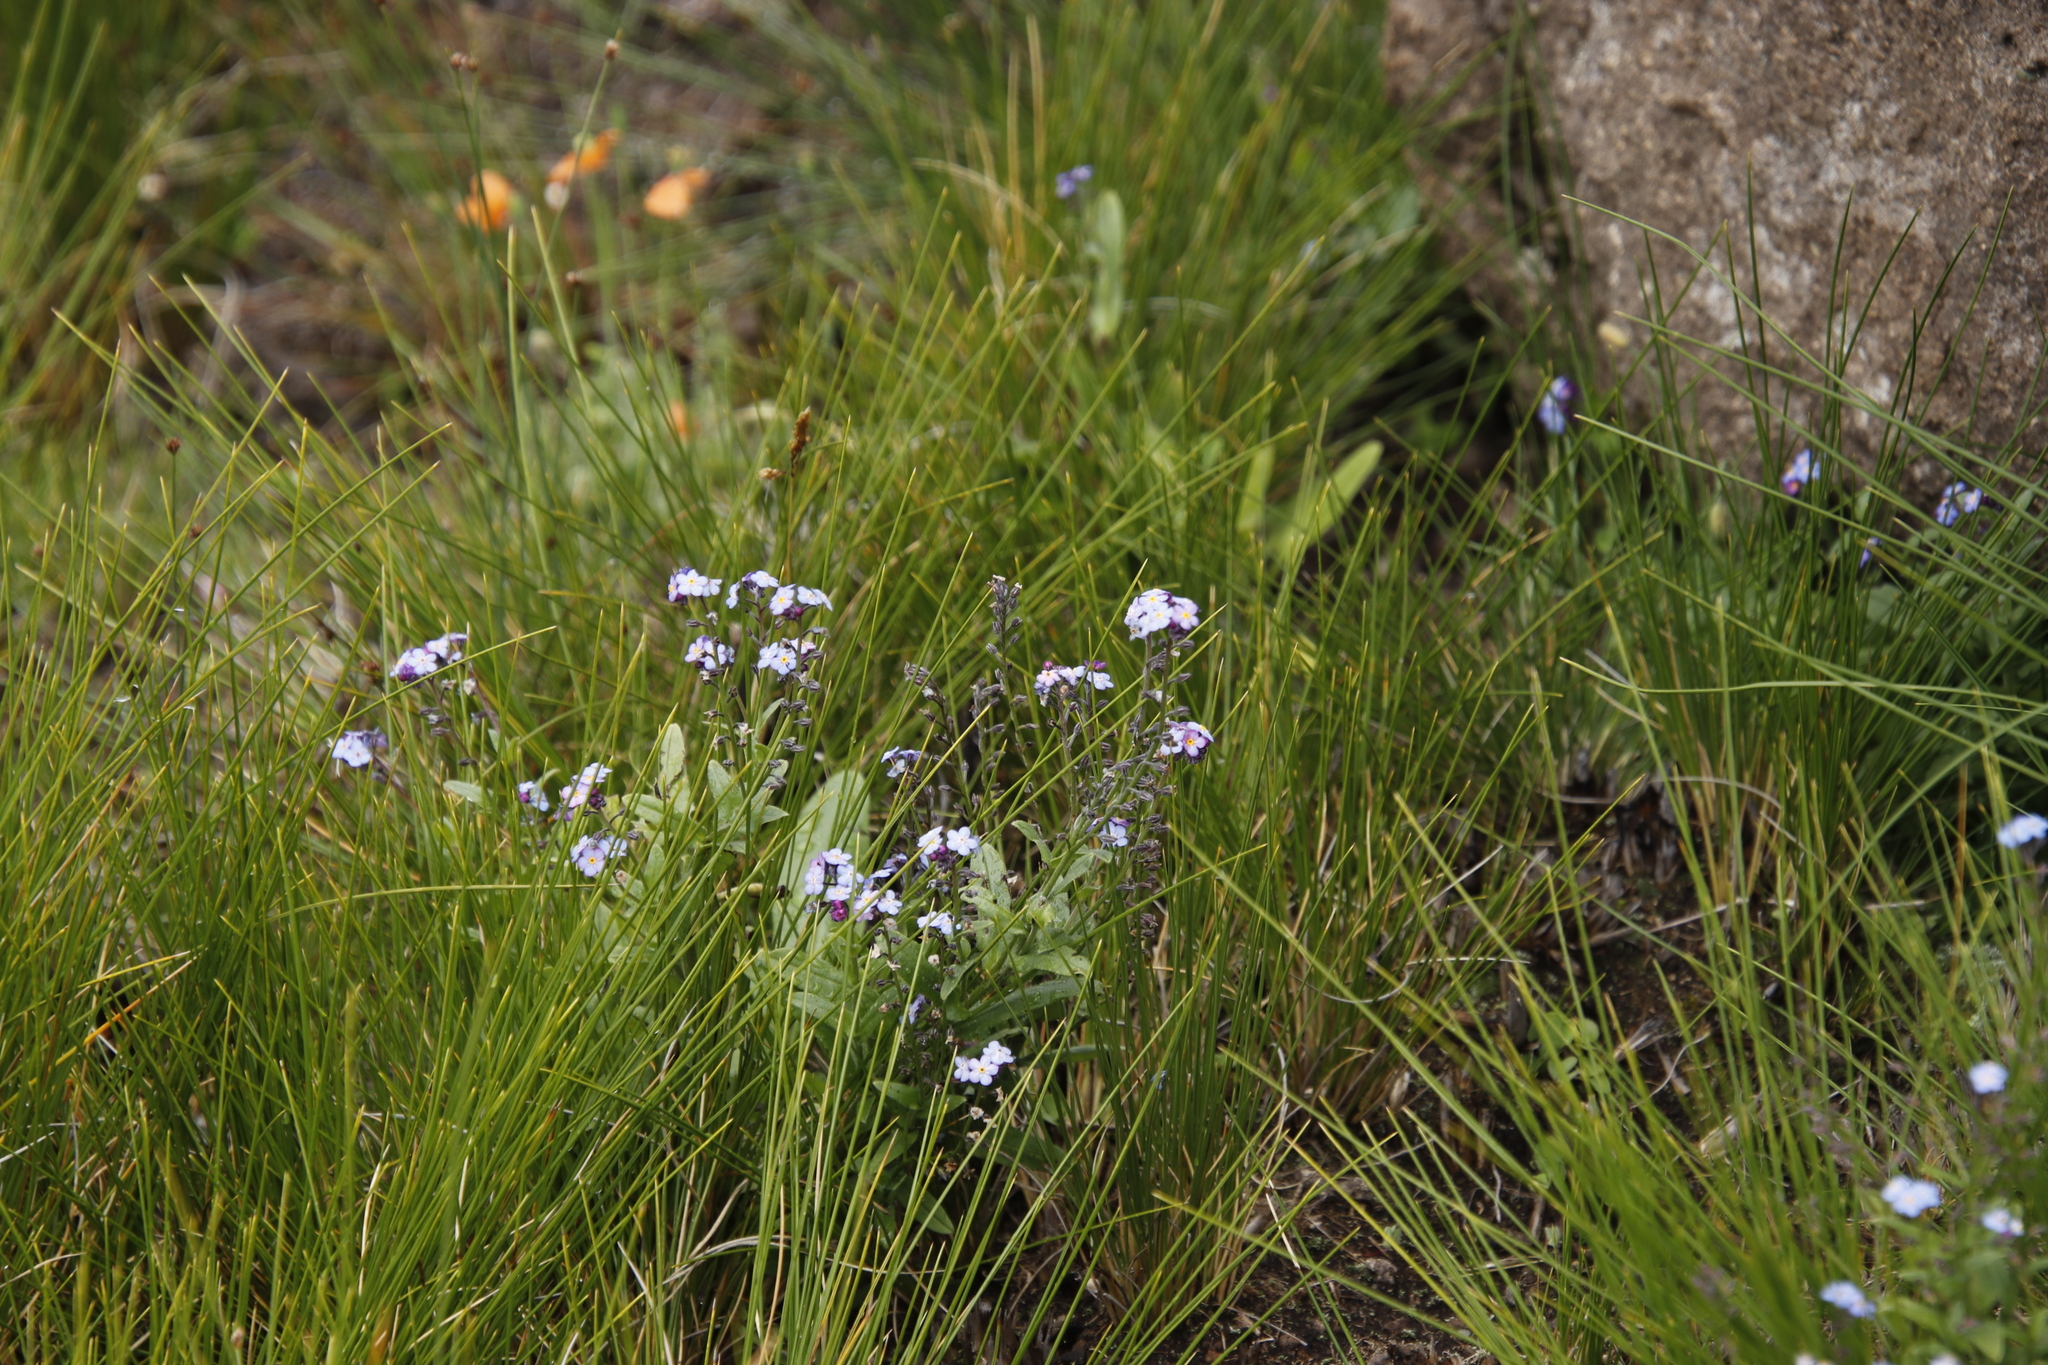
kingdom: Plantae
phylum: Tracheophyta
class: Magnoliopsida
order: Boraginales
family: Boraginaceae
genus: Myosotis
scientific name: Myosotis semiamplexicaulis
